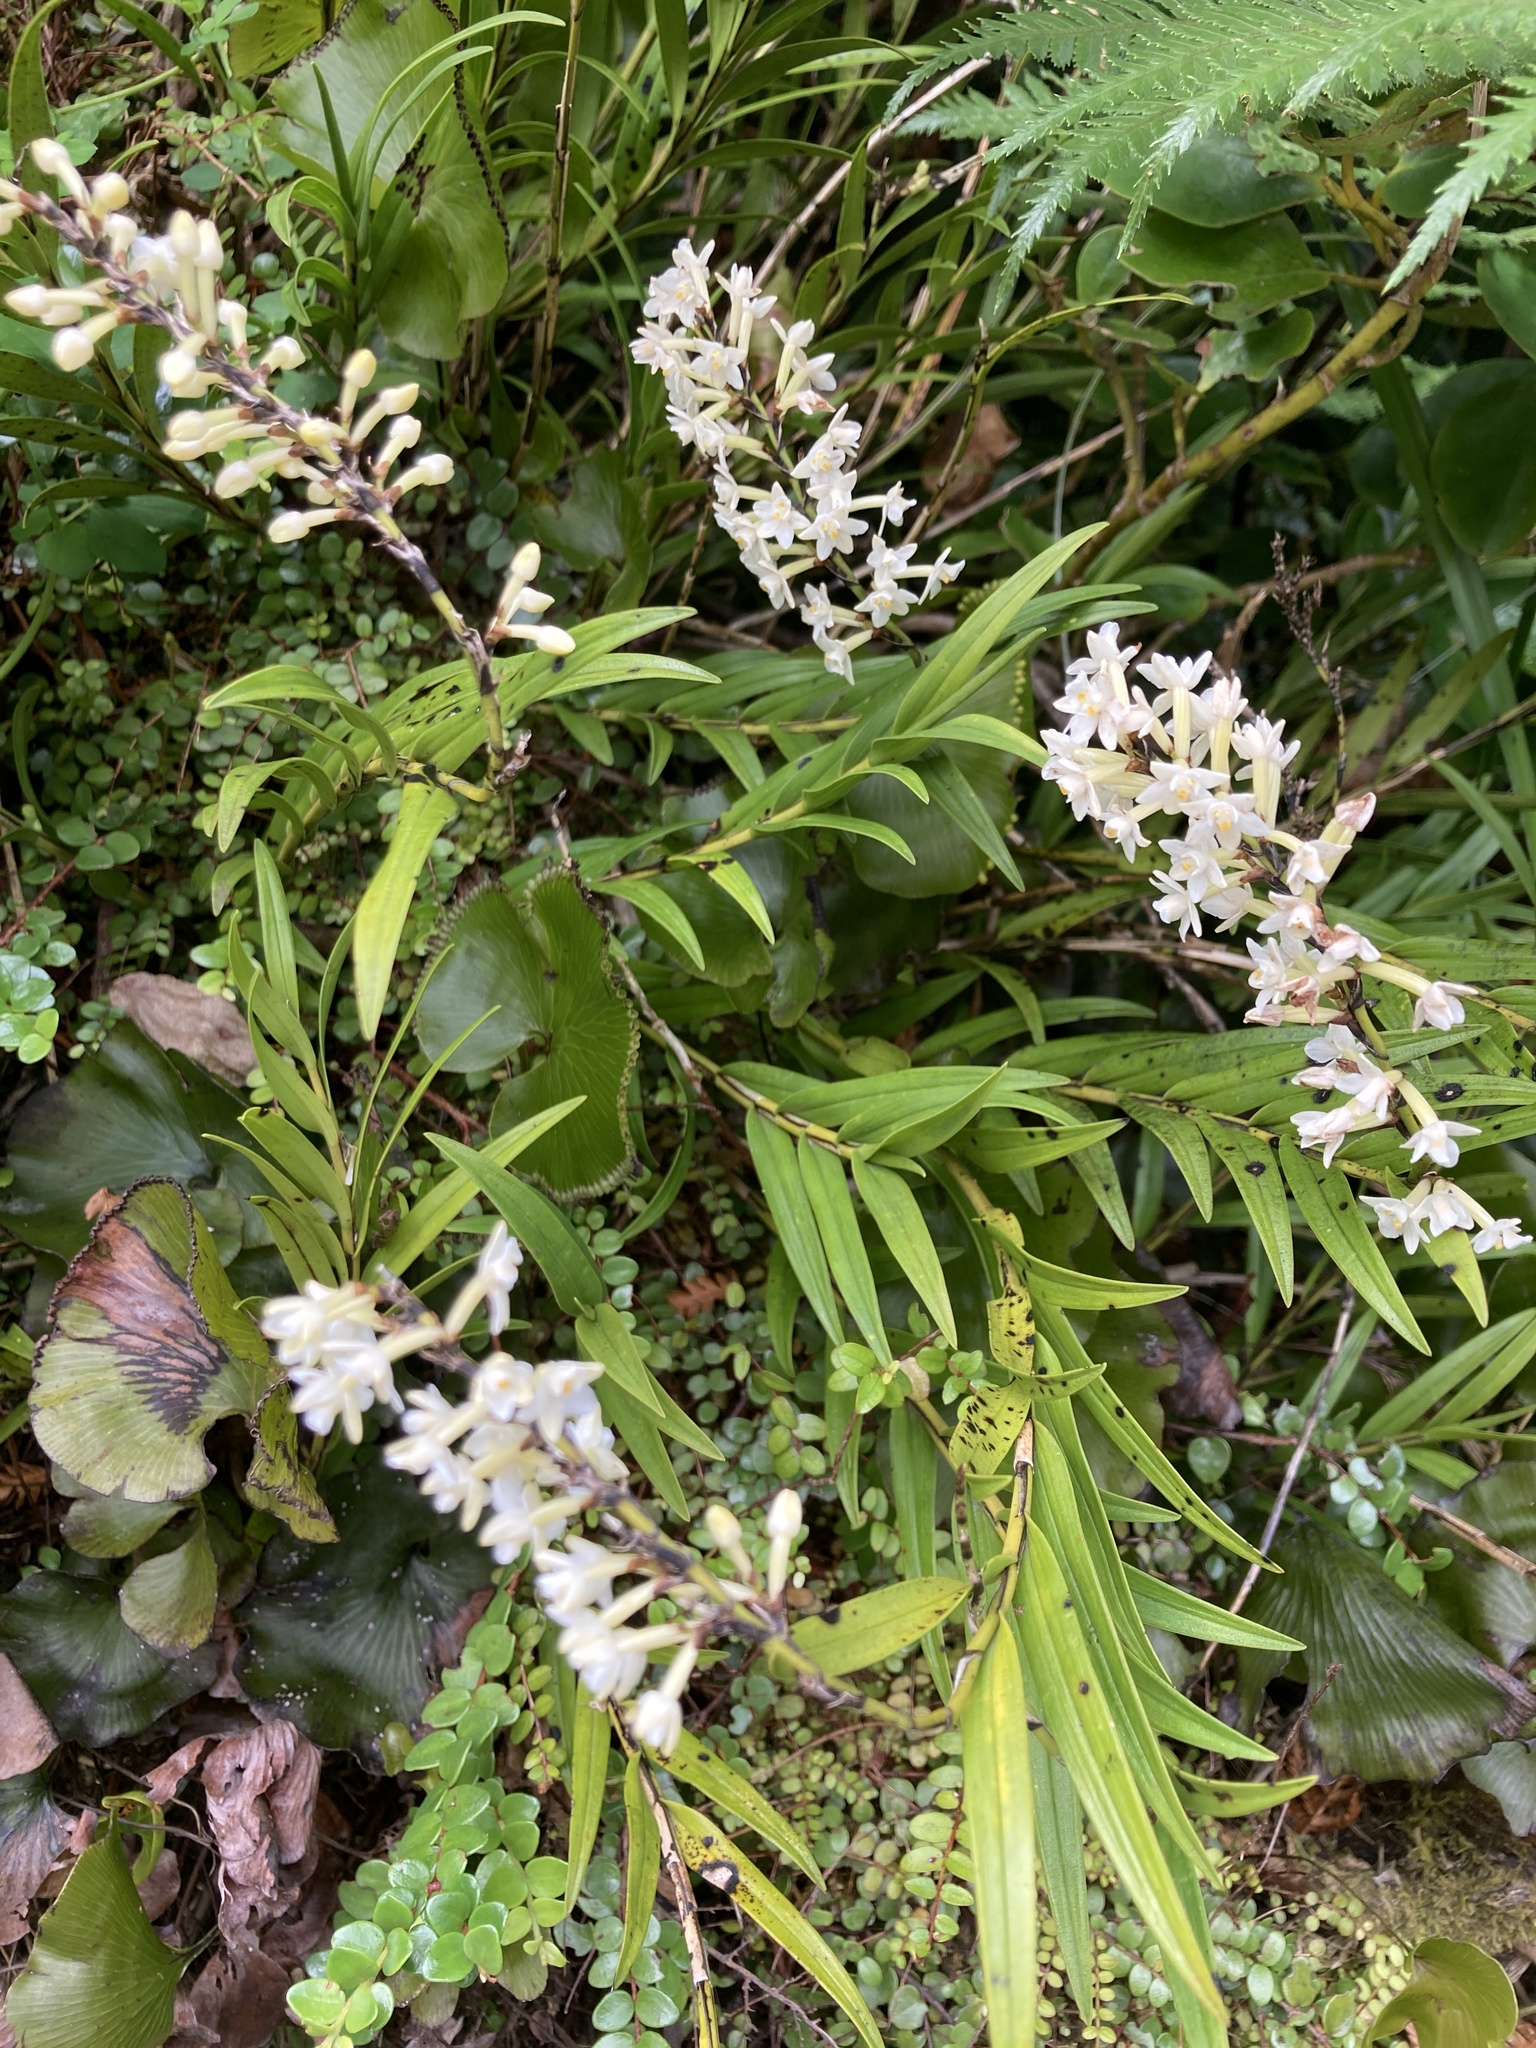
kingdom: Plantae
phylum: Tracheophyta
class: Liliopsida
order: Asparagales
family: Orchidaceae
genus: Earina
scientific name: Earina autumnalis
